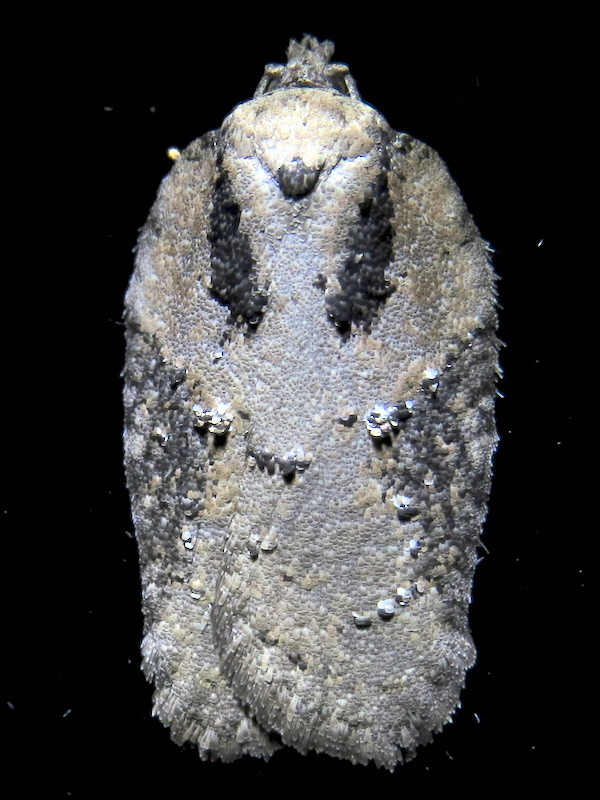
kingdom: Animalia
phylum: Arthropoda
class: Insecta
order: Lepidoptera
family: Tortricidae
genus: Acleris
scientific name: Acleris chalybeana
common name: Lesser maple leafroller
